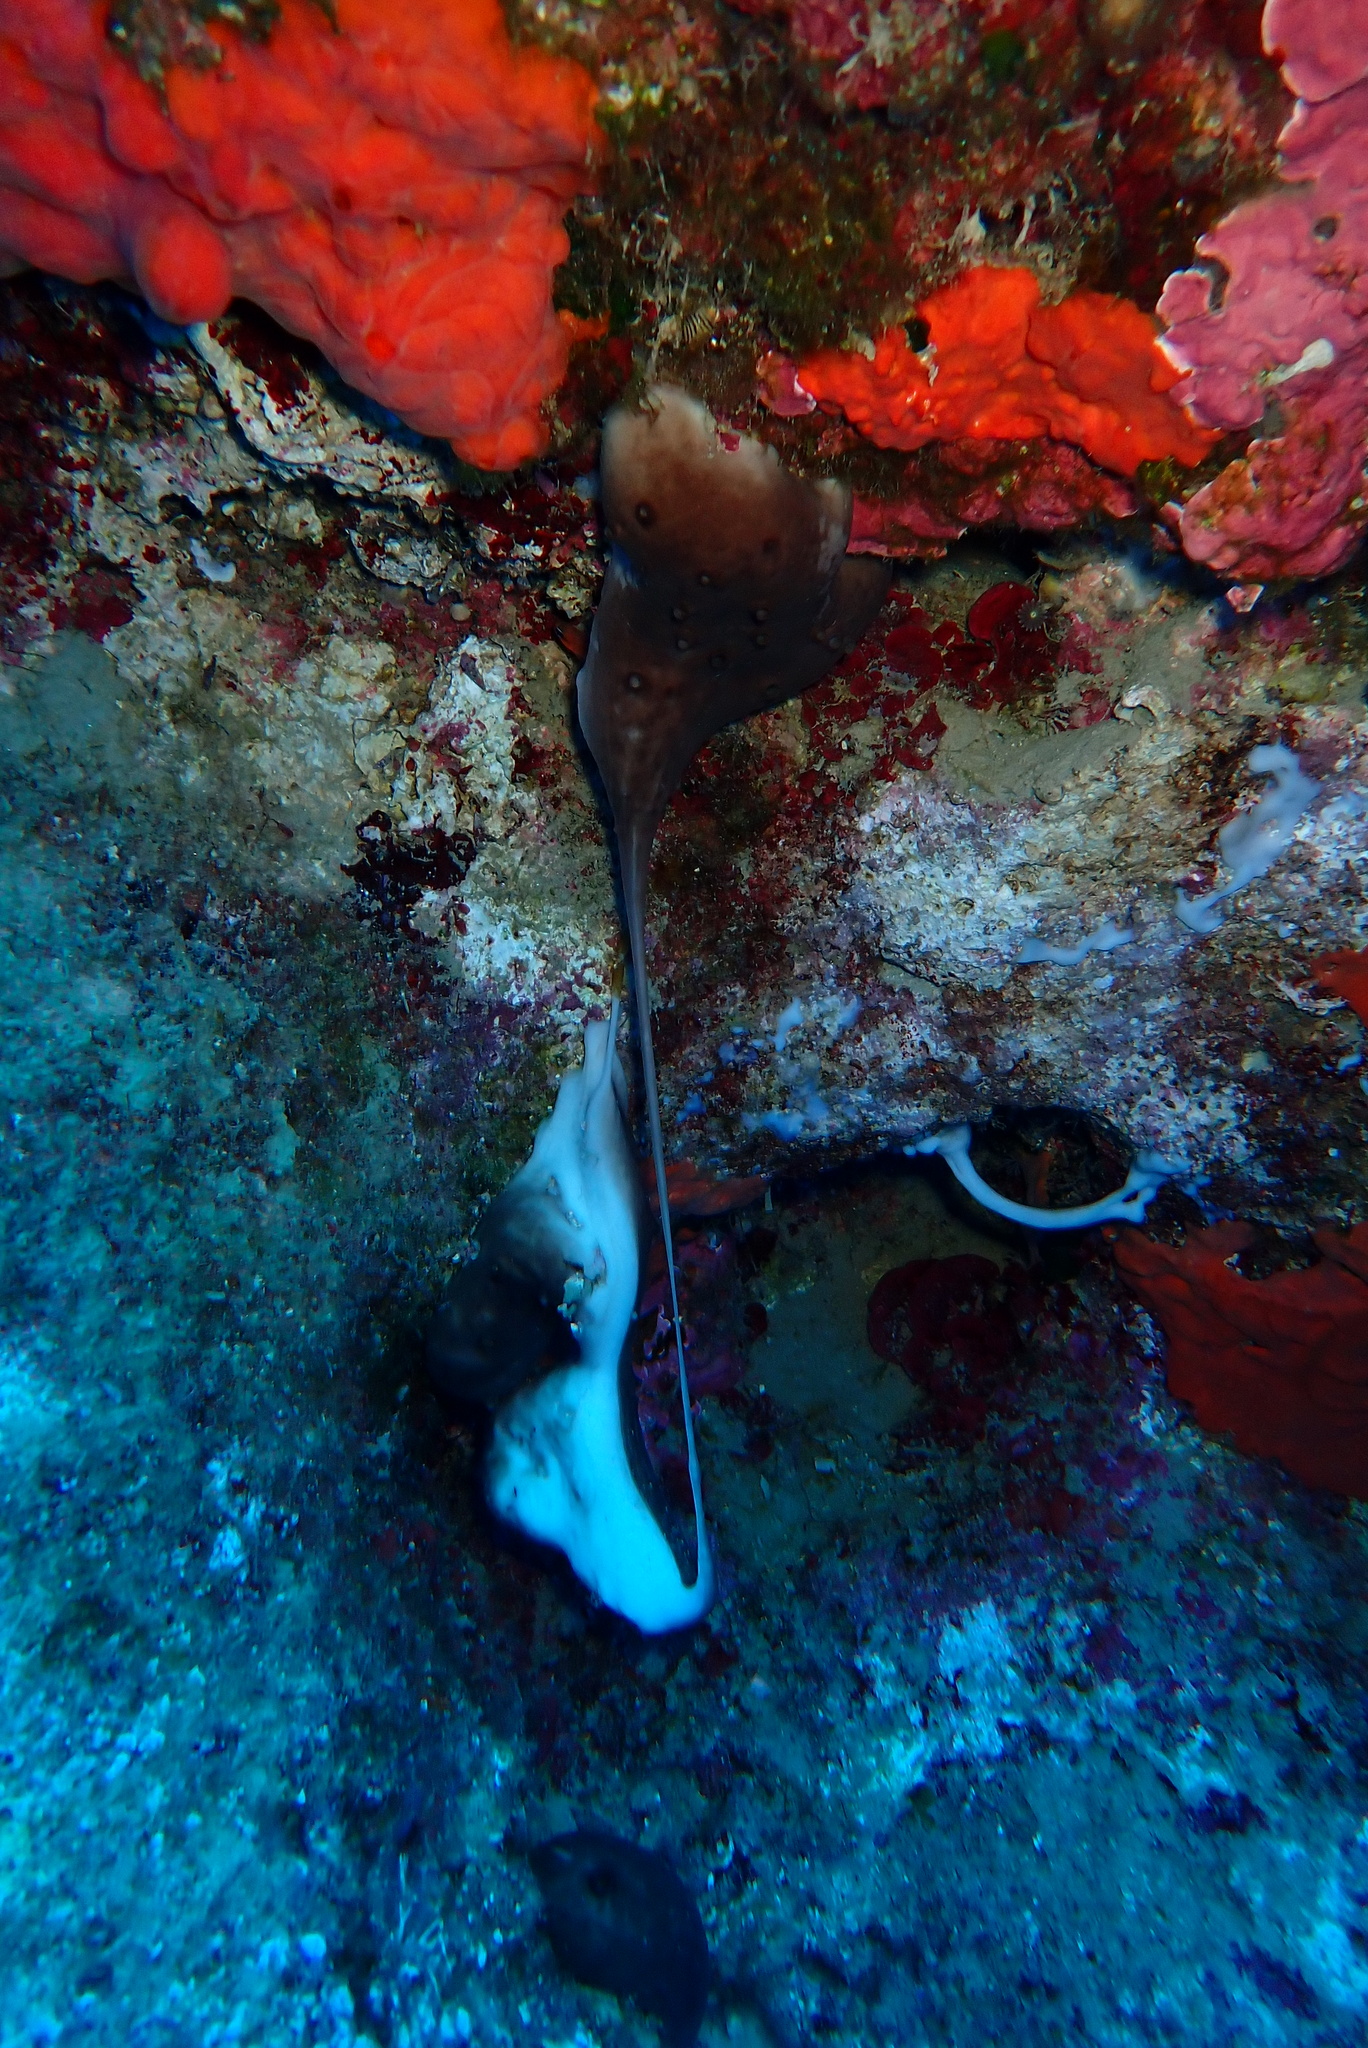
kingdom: Animalia
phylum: Porifera
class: Demospongiae
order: Chondrosiida
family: Chondrosiidae
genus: Chondrosia
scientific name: Chondrosia reniformis
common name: Chicken liver sponge
